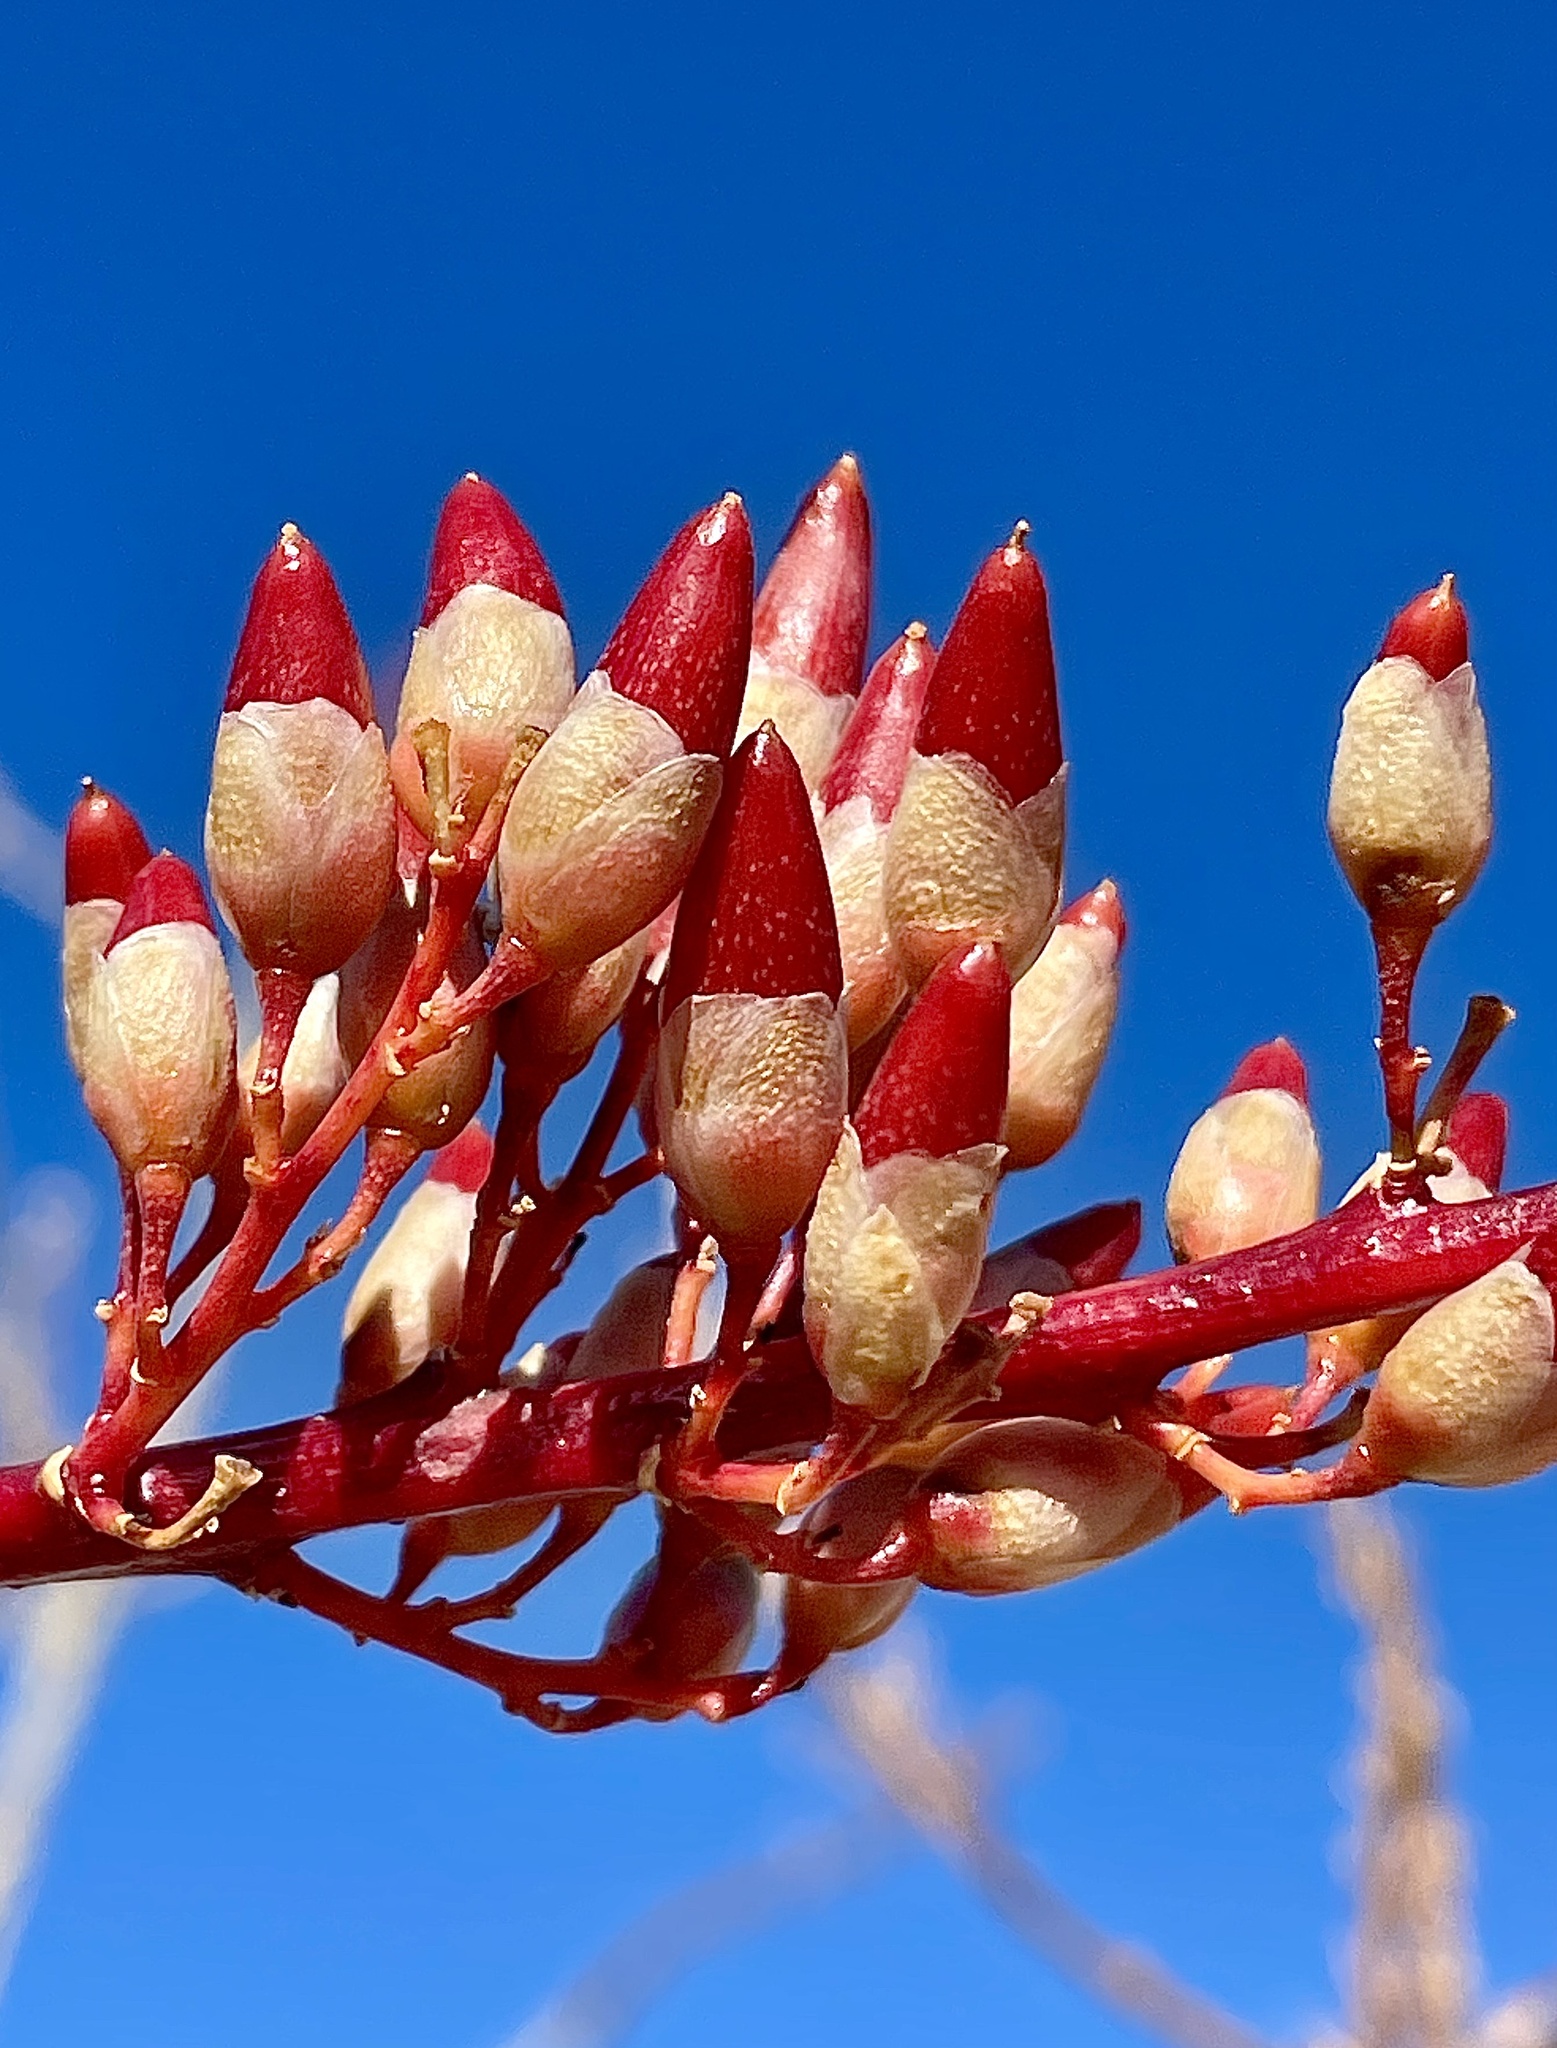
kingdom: Plantae
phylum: Tracheophyta
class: Magnoliopsida
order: Ericales
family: Fouquieriaceae
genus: Fouquieria
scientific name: Fouquieria splendens
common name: Vine-cactus
